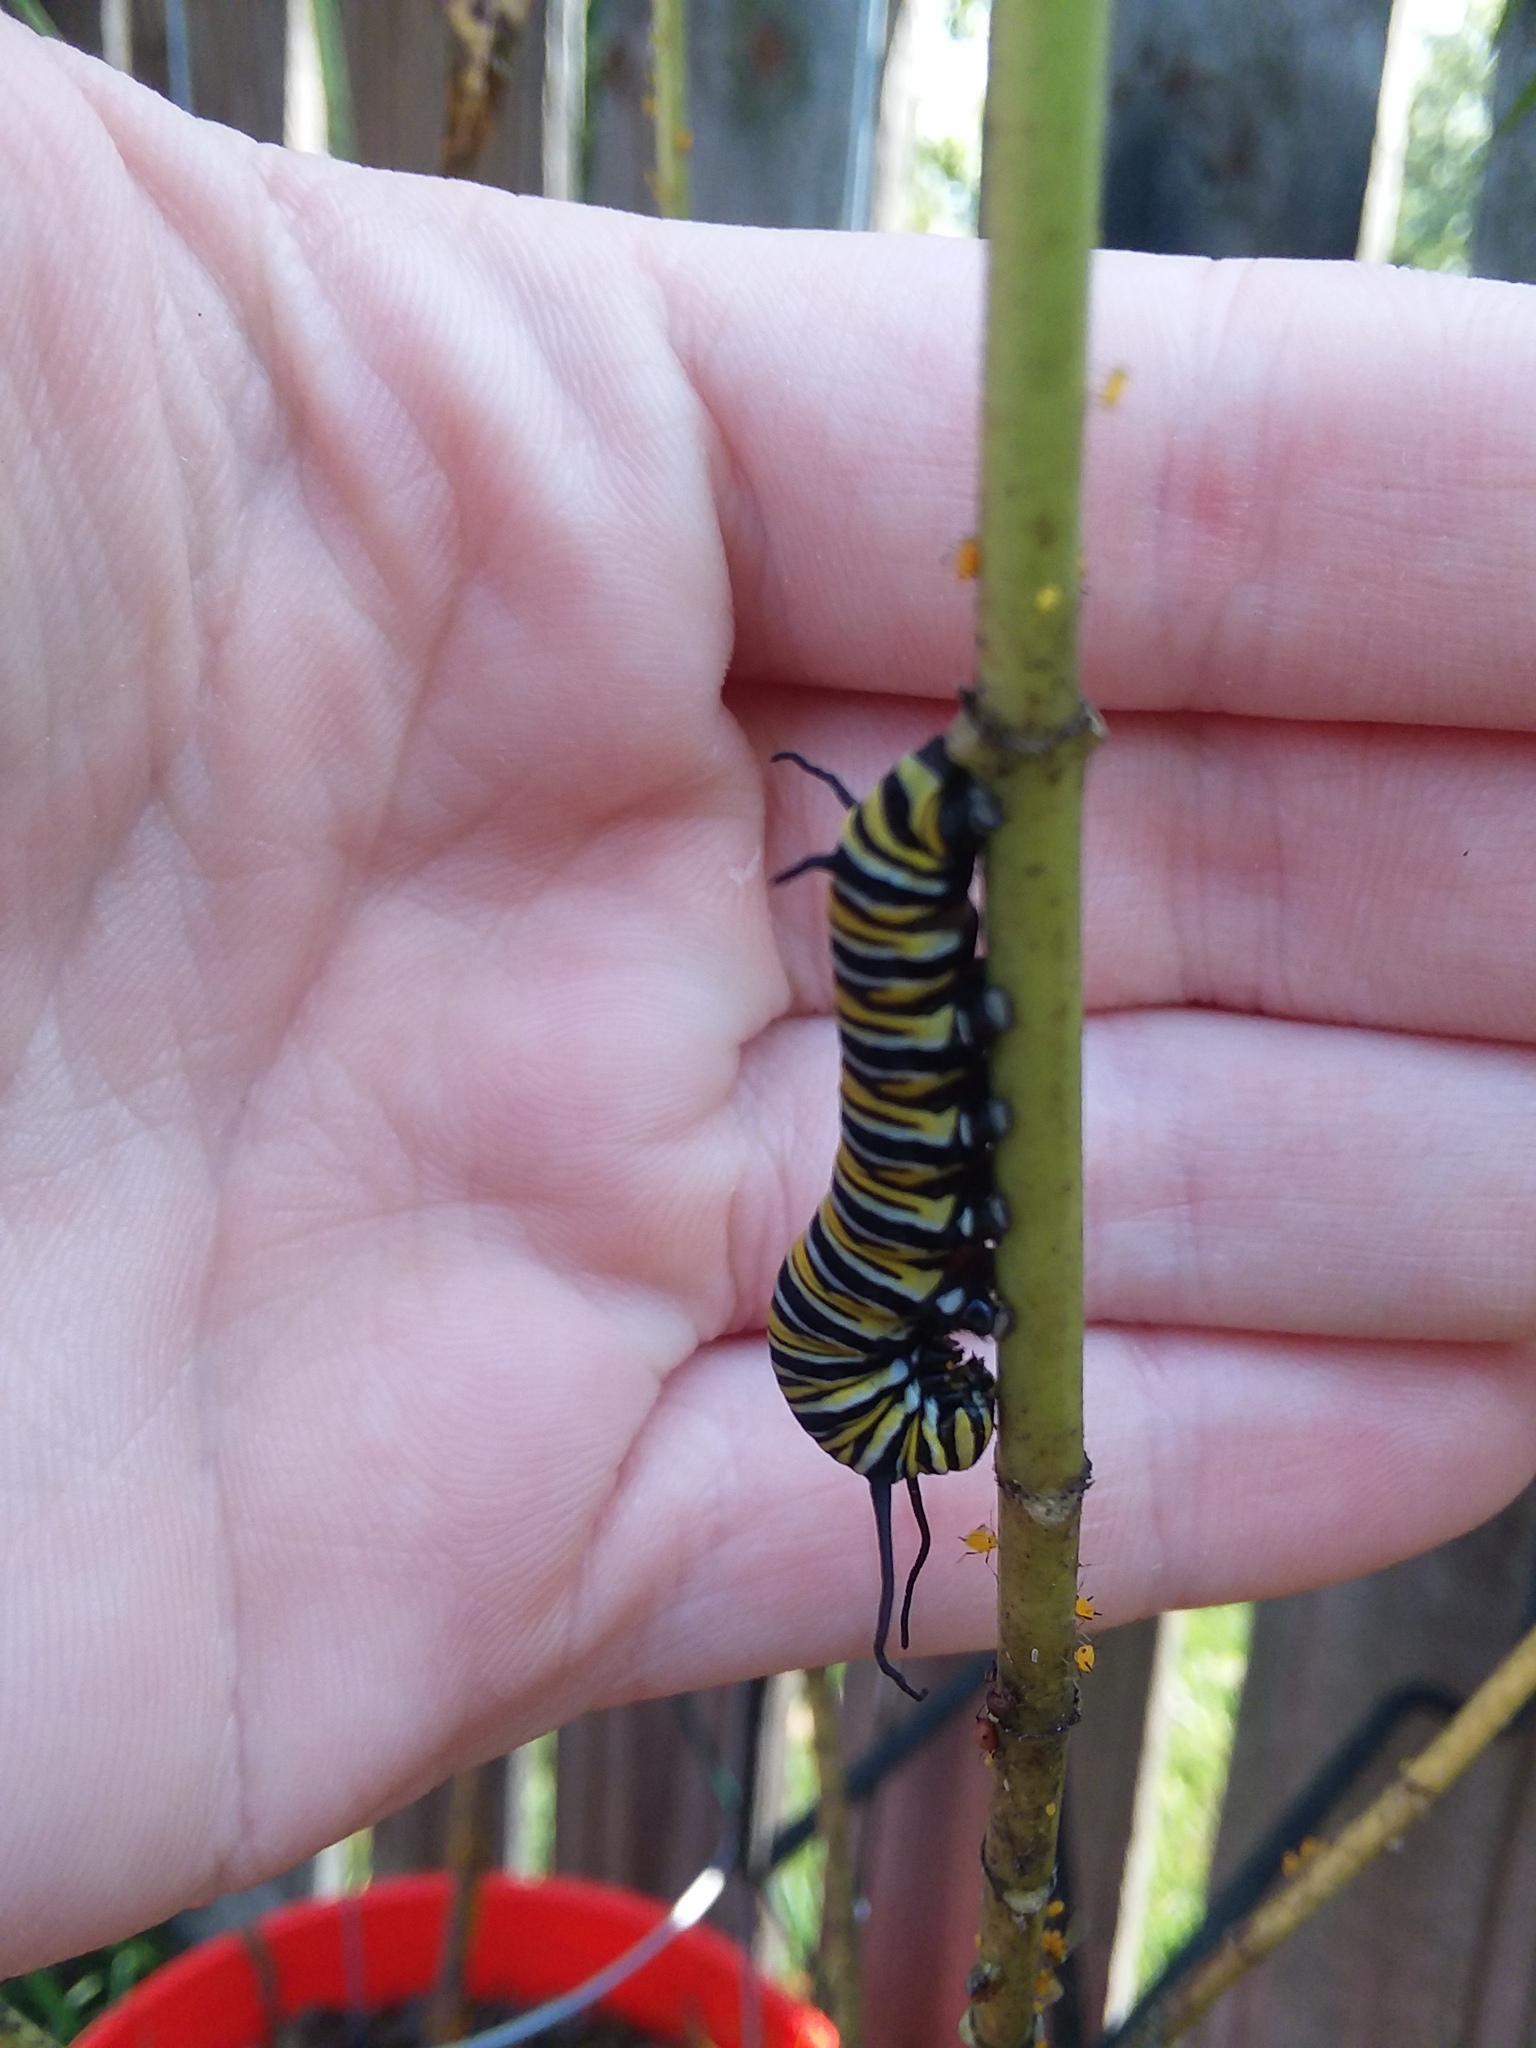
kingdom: Animalia
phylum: Arthropoda
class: Insecta
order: Lepidoptera
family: Nymphalidae
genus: Danaus
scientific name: Danaus plexippus
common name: Monarch
